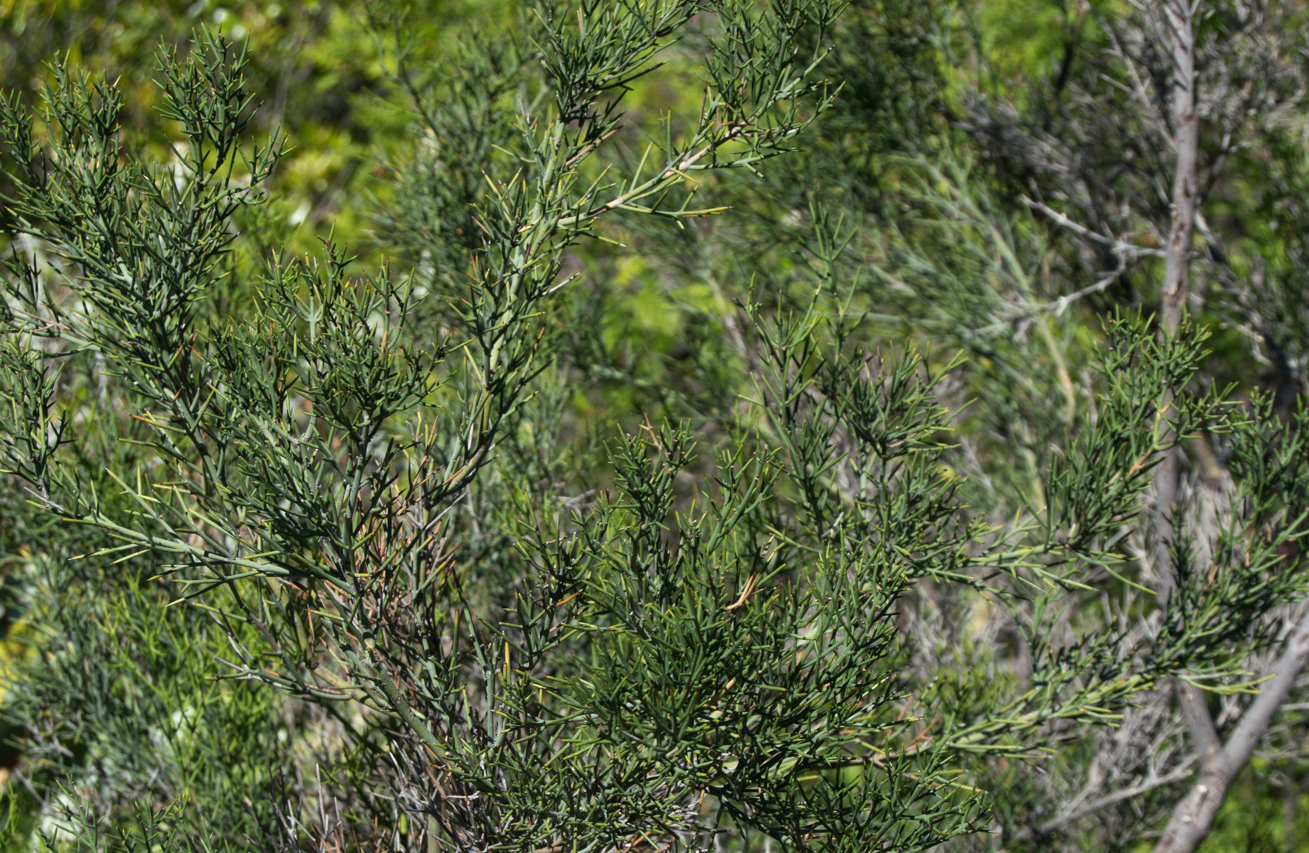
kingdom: Plantae
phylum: Tracheophyta
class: Magnoliopsida
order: Rosales
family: Rhamnaceae
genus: Colletia
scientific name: Colletia spinosissima
